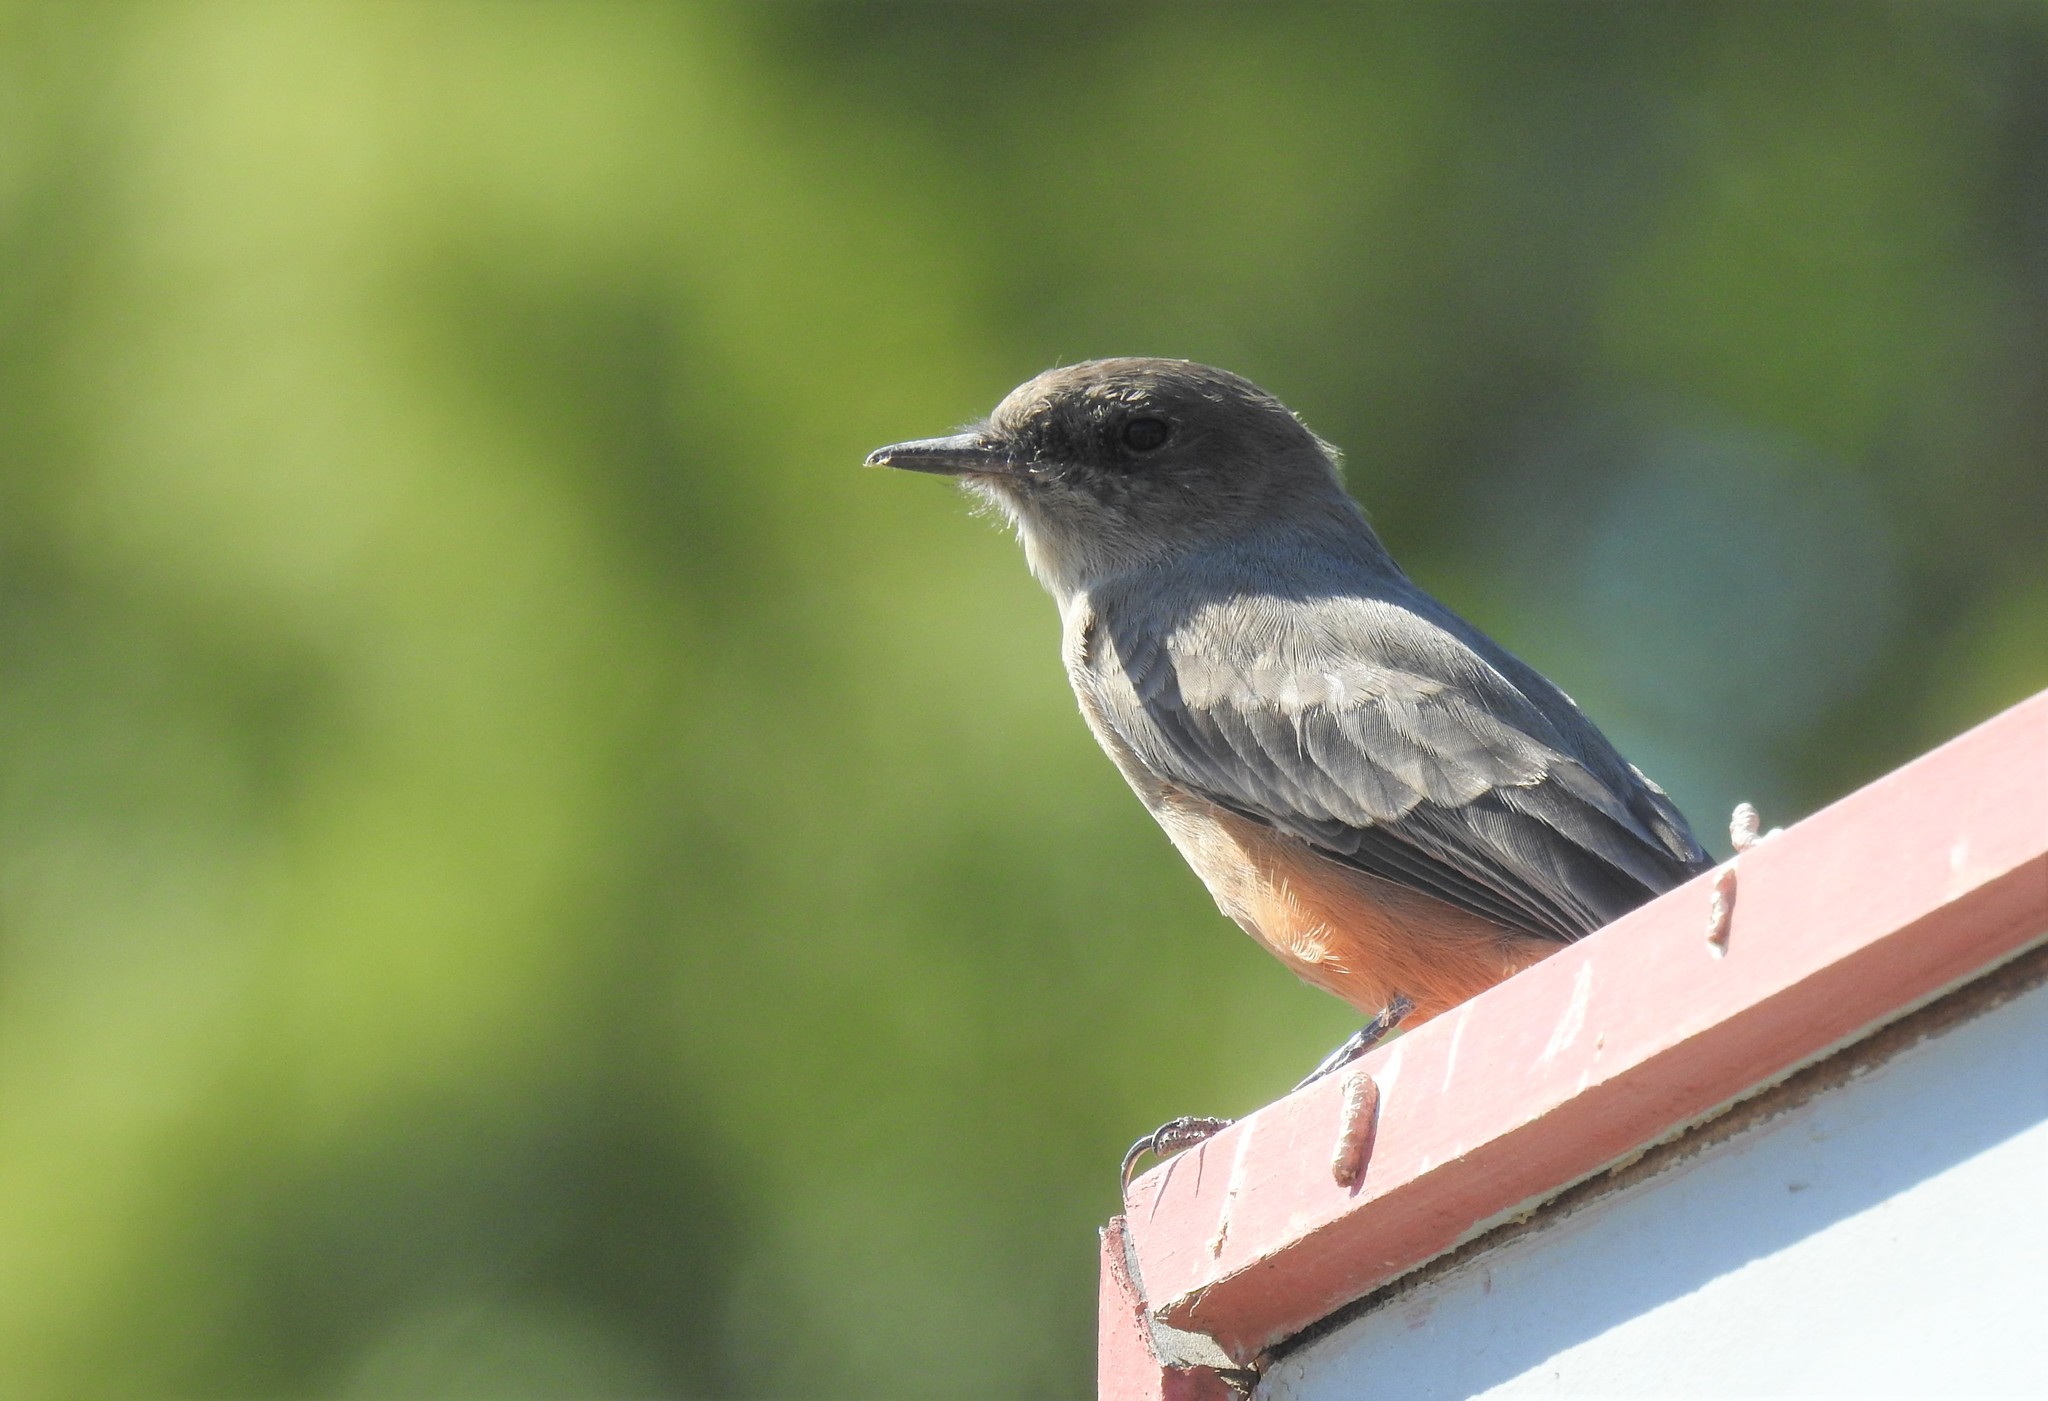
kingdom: Animalia
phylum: Chordata
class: Aves
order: Passeriformes
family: Tyrannidae
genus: Sayornis
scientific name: Sayornis saya
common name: Say's phoebe
